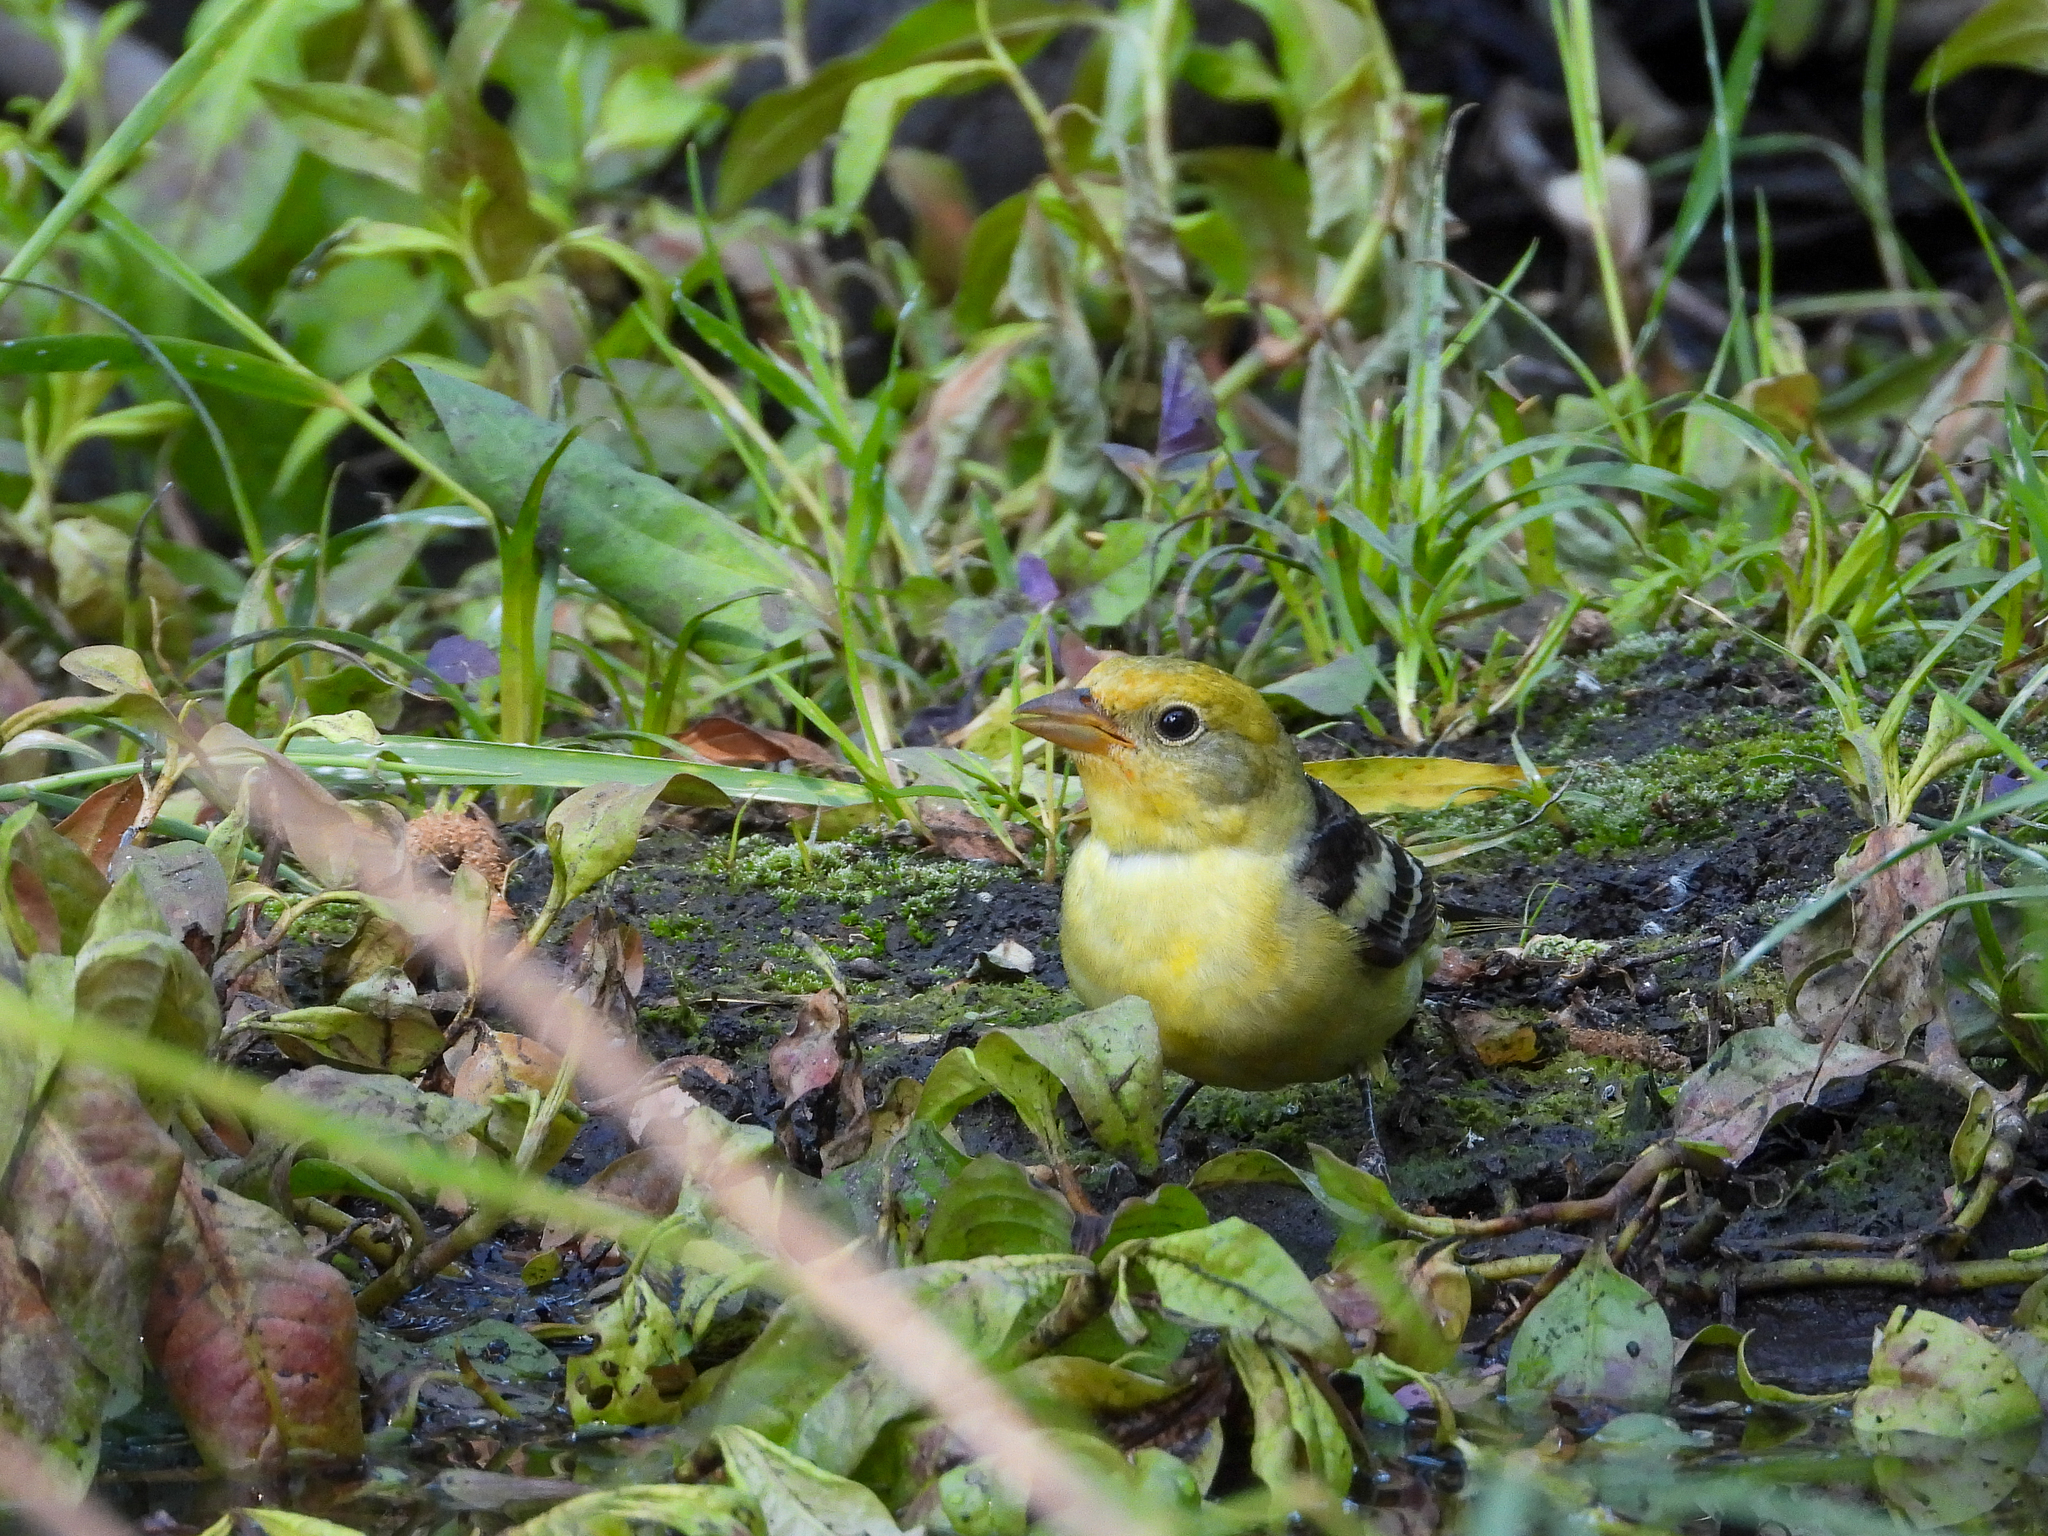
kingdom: Animalia
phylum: Chordata
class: Aves
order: Passeriformes
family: Cardinalidae
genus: Piranga
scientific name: Piranga ludoviciana
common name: Western tanager
